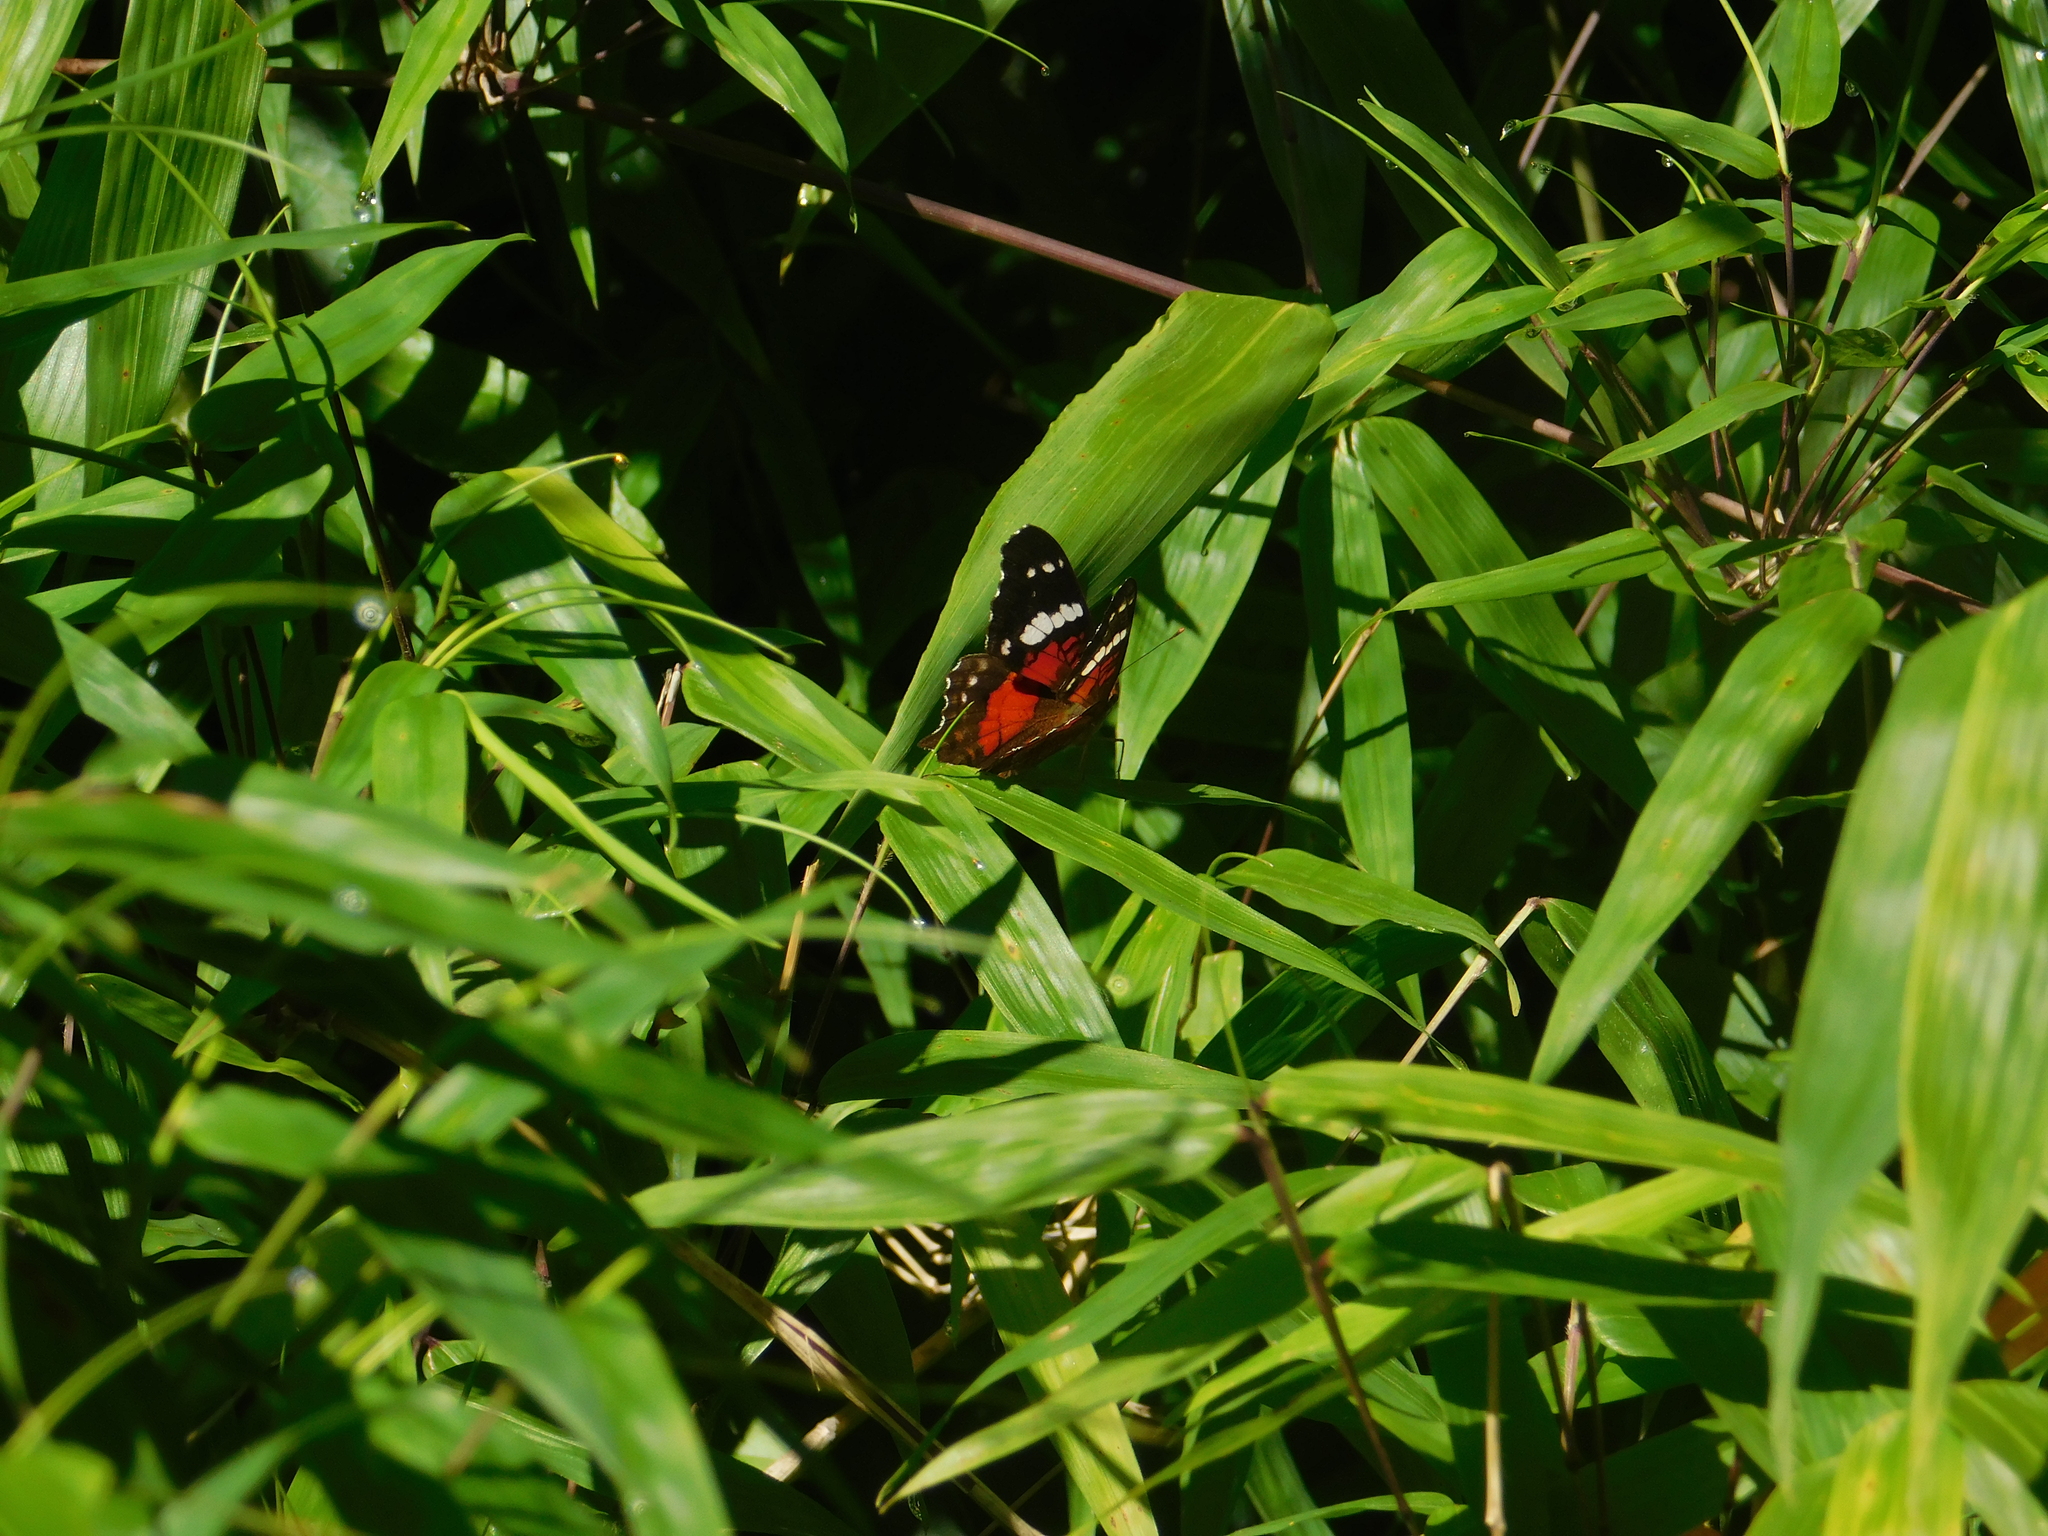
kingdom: Animalia
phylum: Arthropoda
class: Insecta
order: Lepidoptera
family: Nymphalidae
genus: Anartia
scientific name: Anartia amathea
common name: Red peacock
